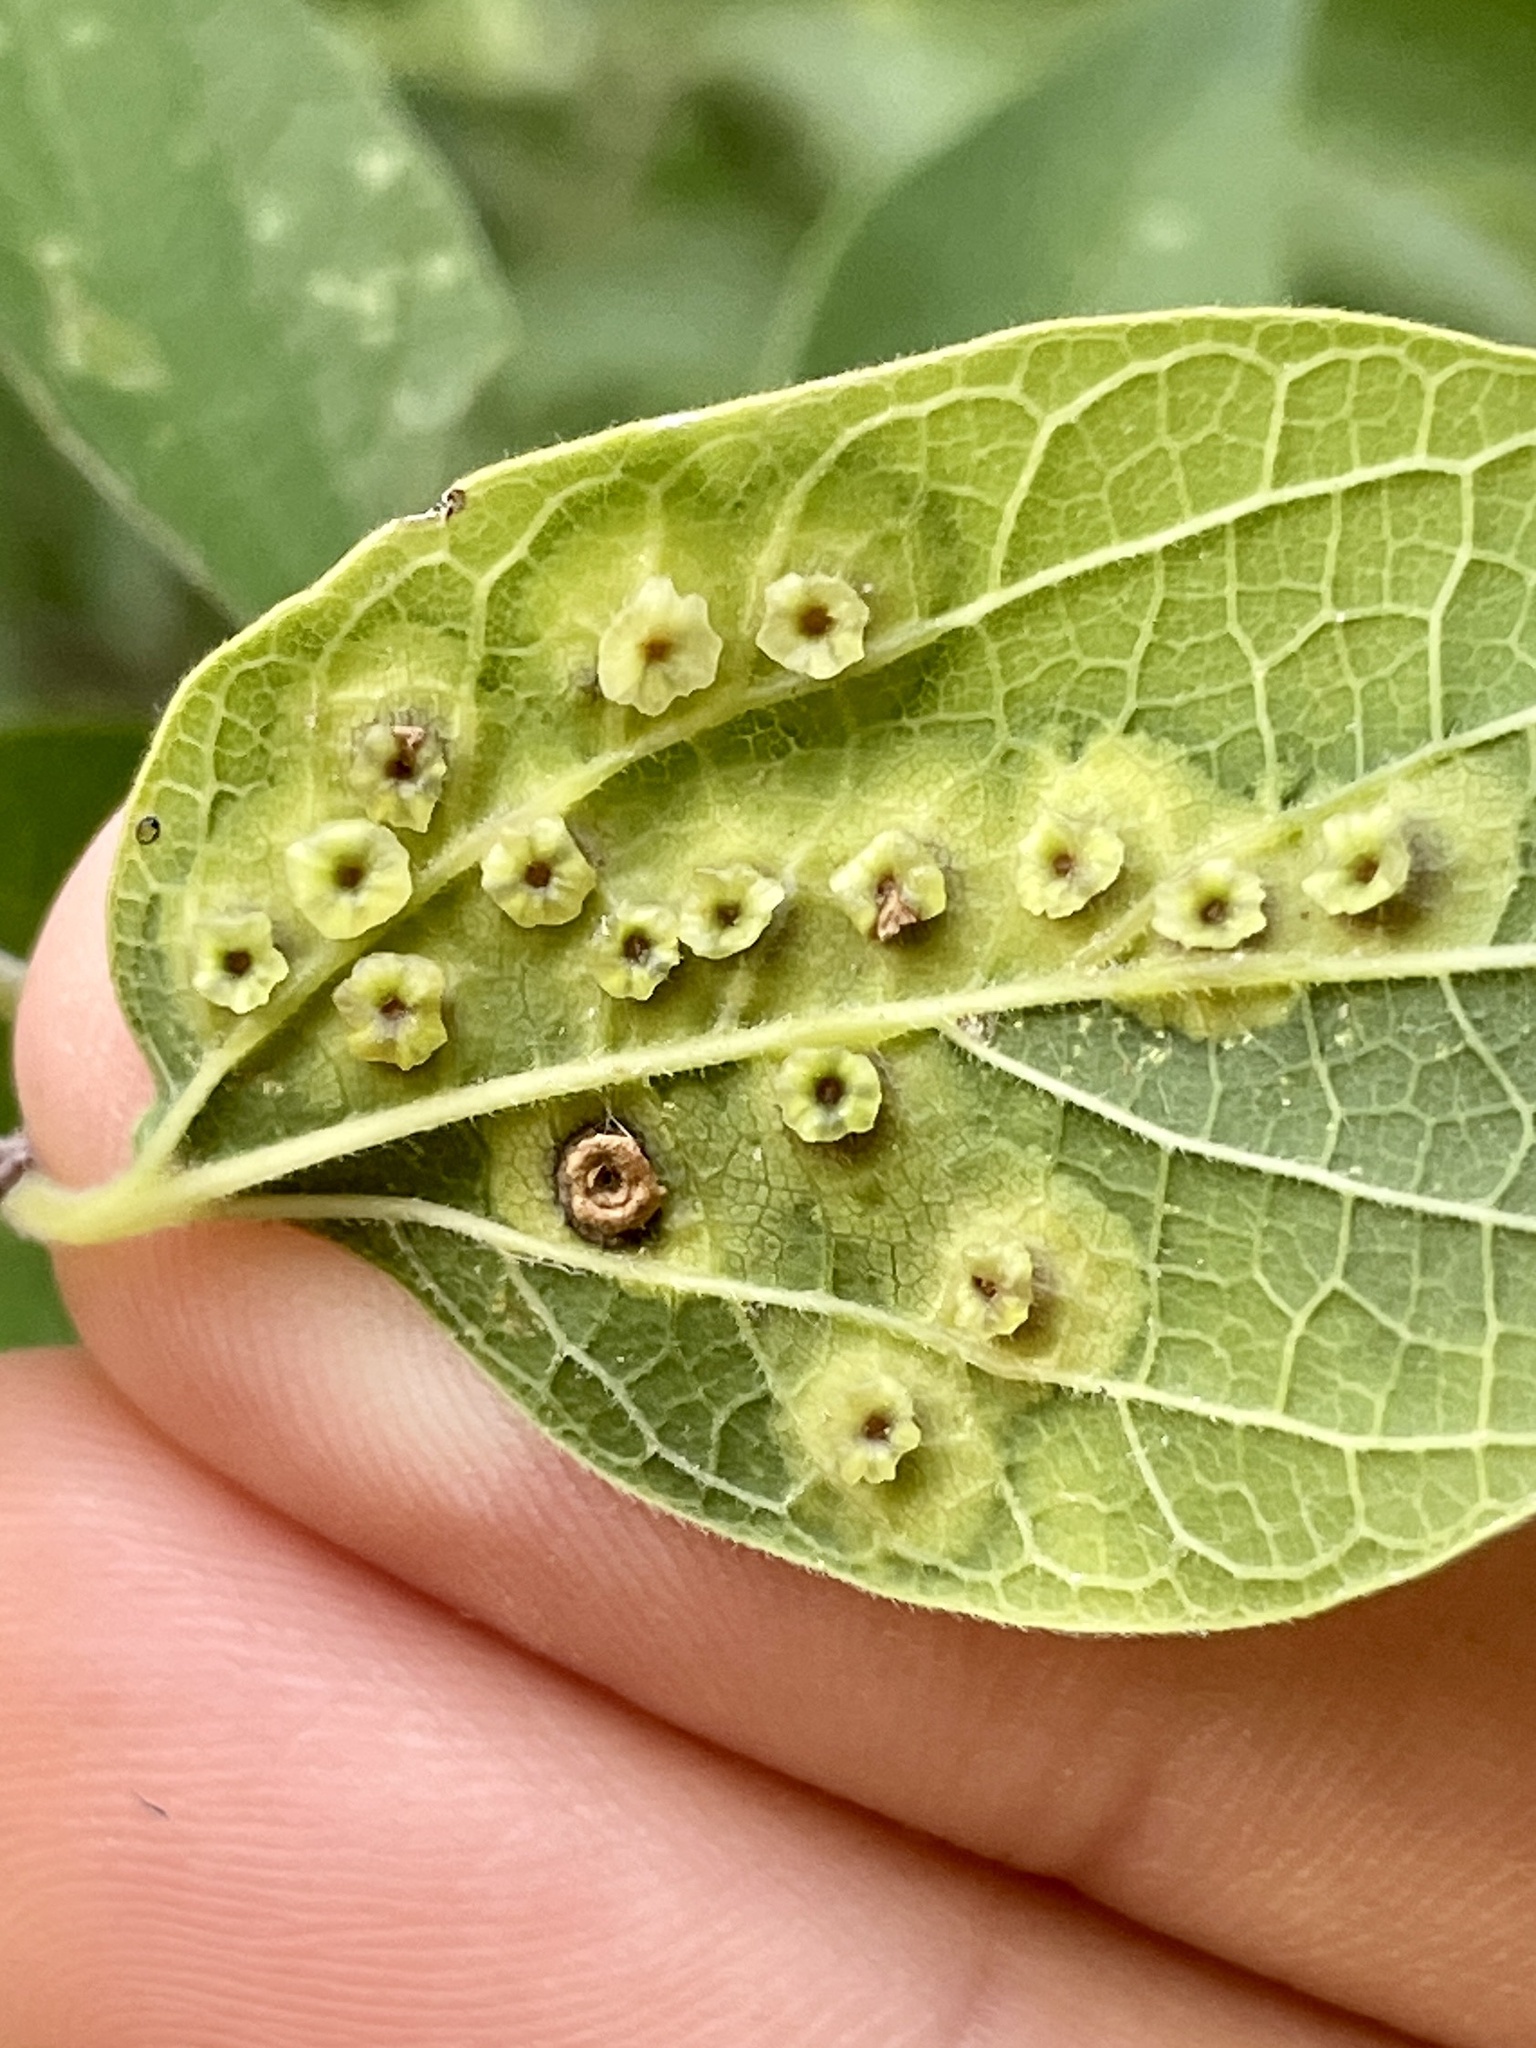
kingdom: Animalia
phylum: Arthropoda
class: Insecta
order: Hemiptera
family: Aphalaridae
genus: Pachypsylla
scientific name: Pachypsylla celtidisasterisca
